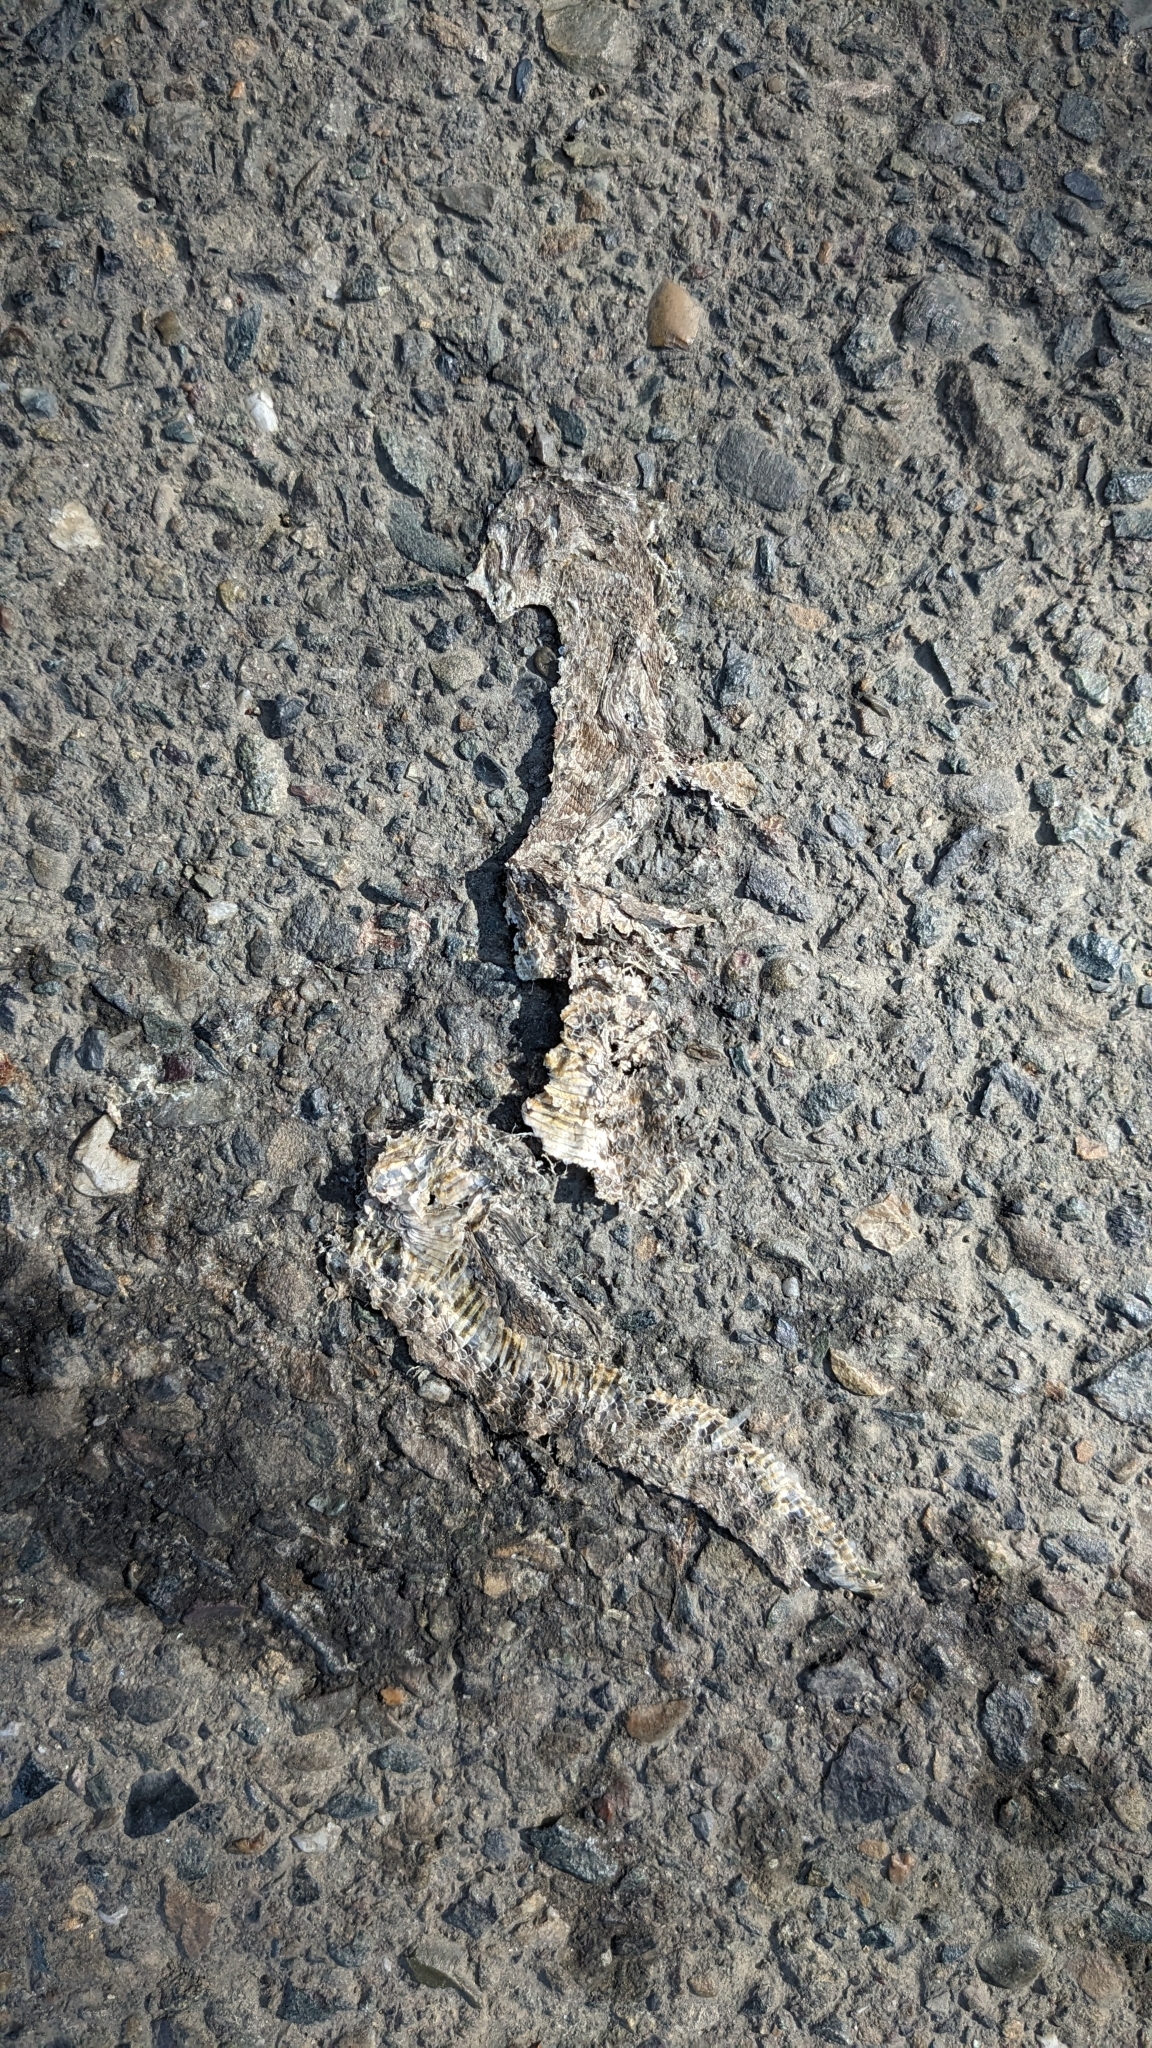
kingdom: Animalia
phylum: Chordata
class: Squamata
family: Viperidae
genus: Crotalus
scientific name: Crotalus oreganus
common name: Abyssus
